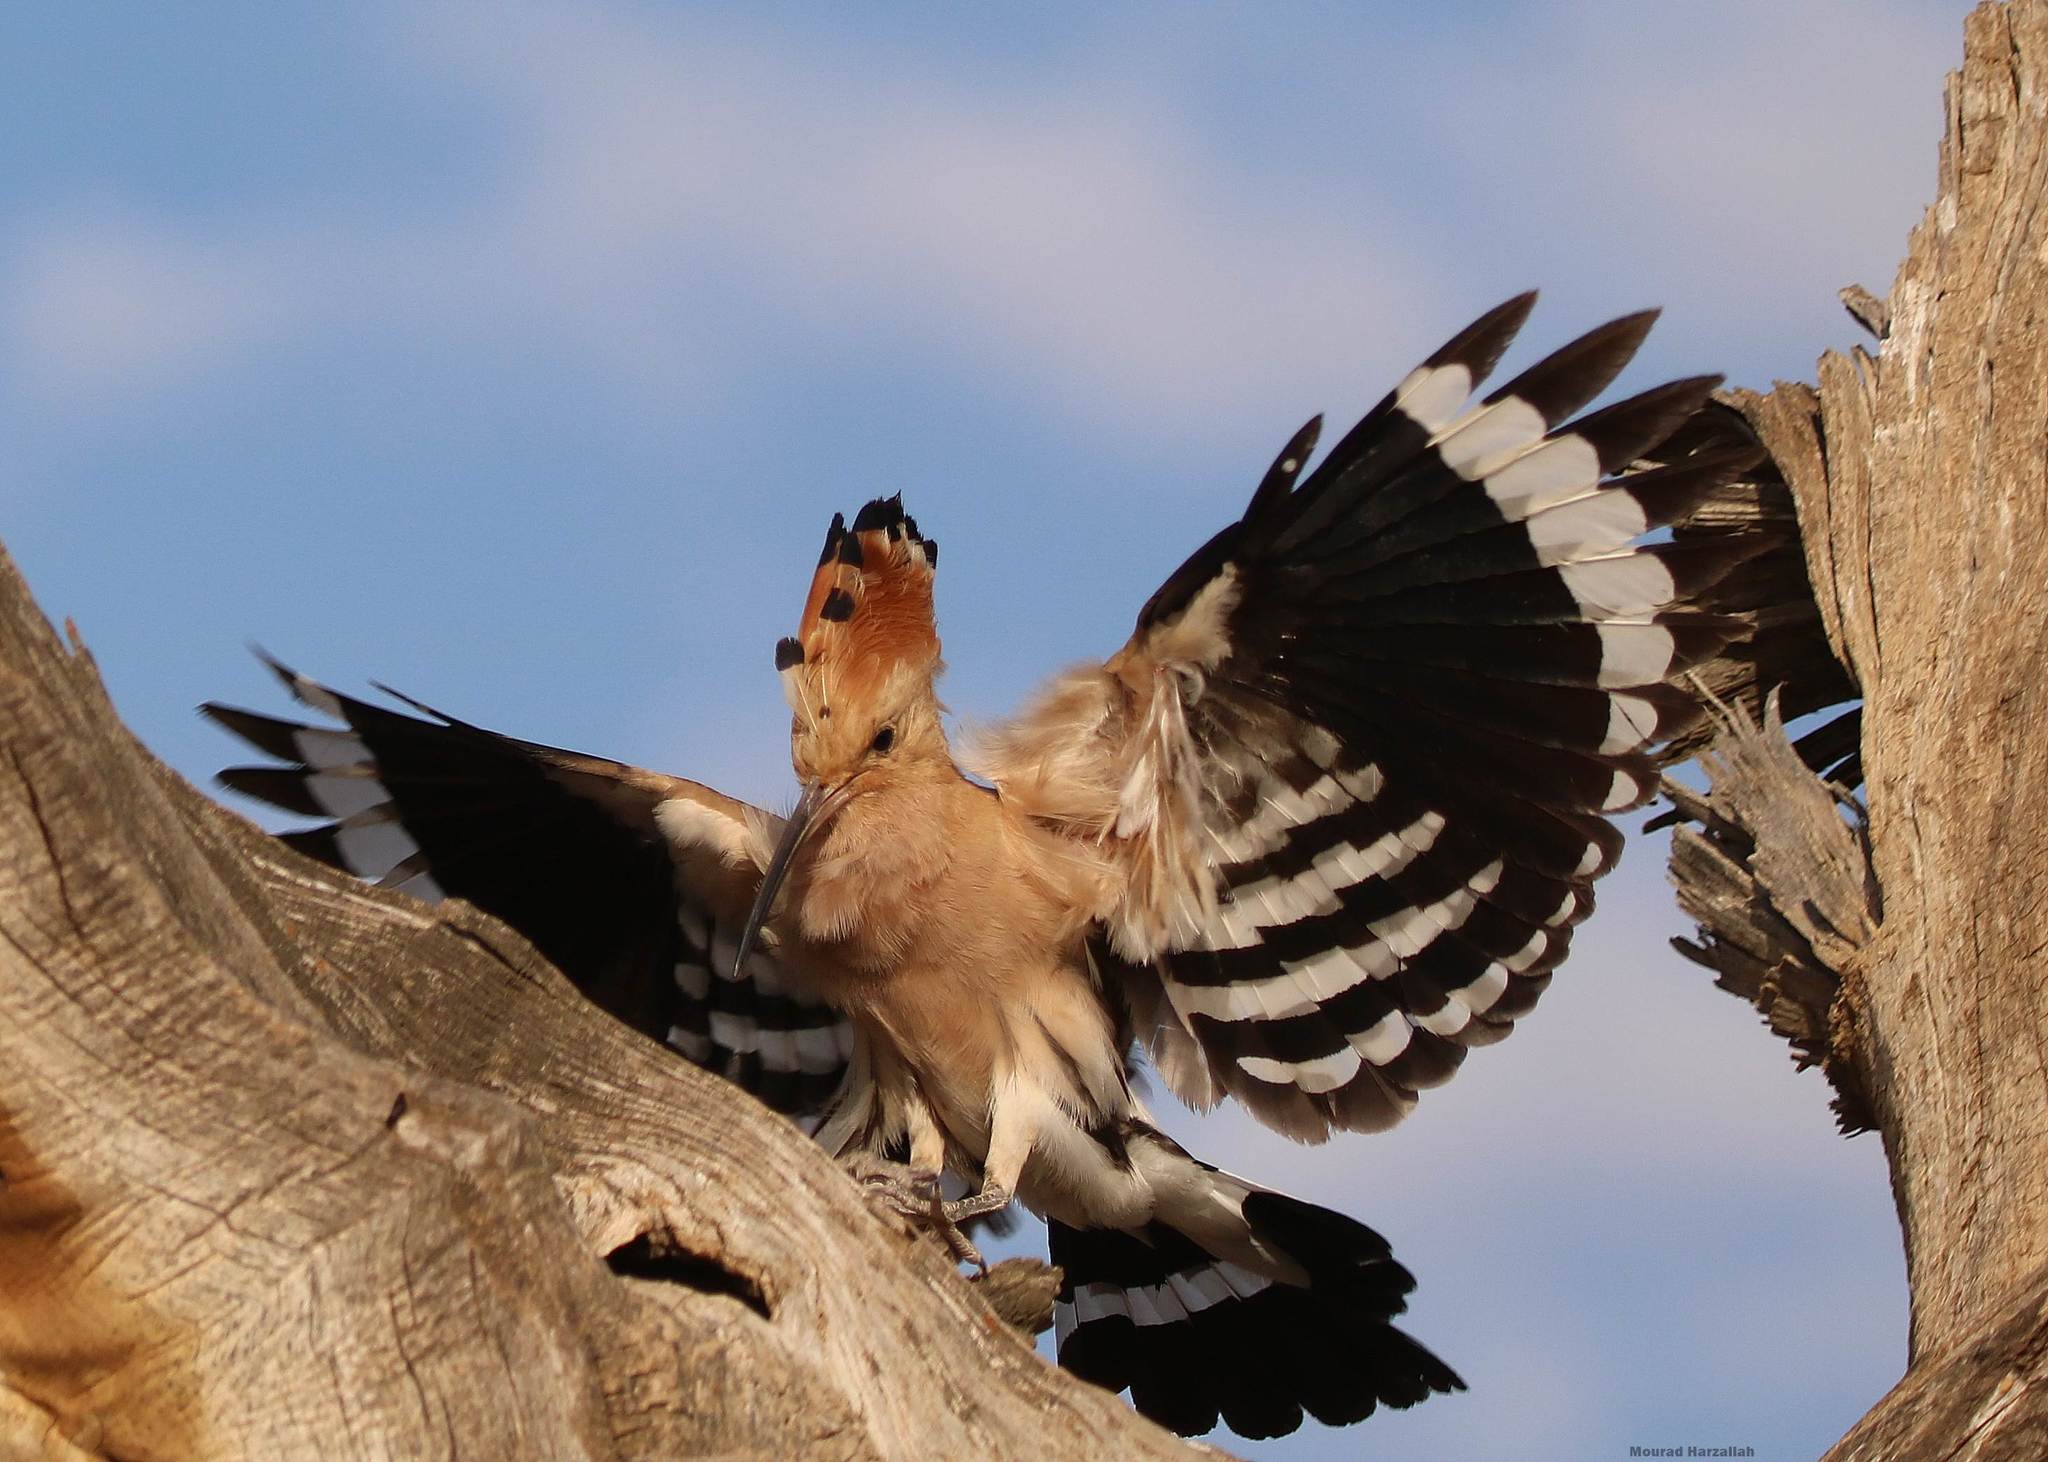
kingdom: Animalia
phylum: Chordata
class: Aves
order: Bucerotiformes
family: Upupidae
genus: Upupa
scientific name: Upupa epops
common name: Eurasian hoopoe
